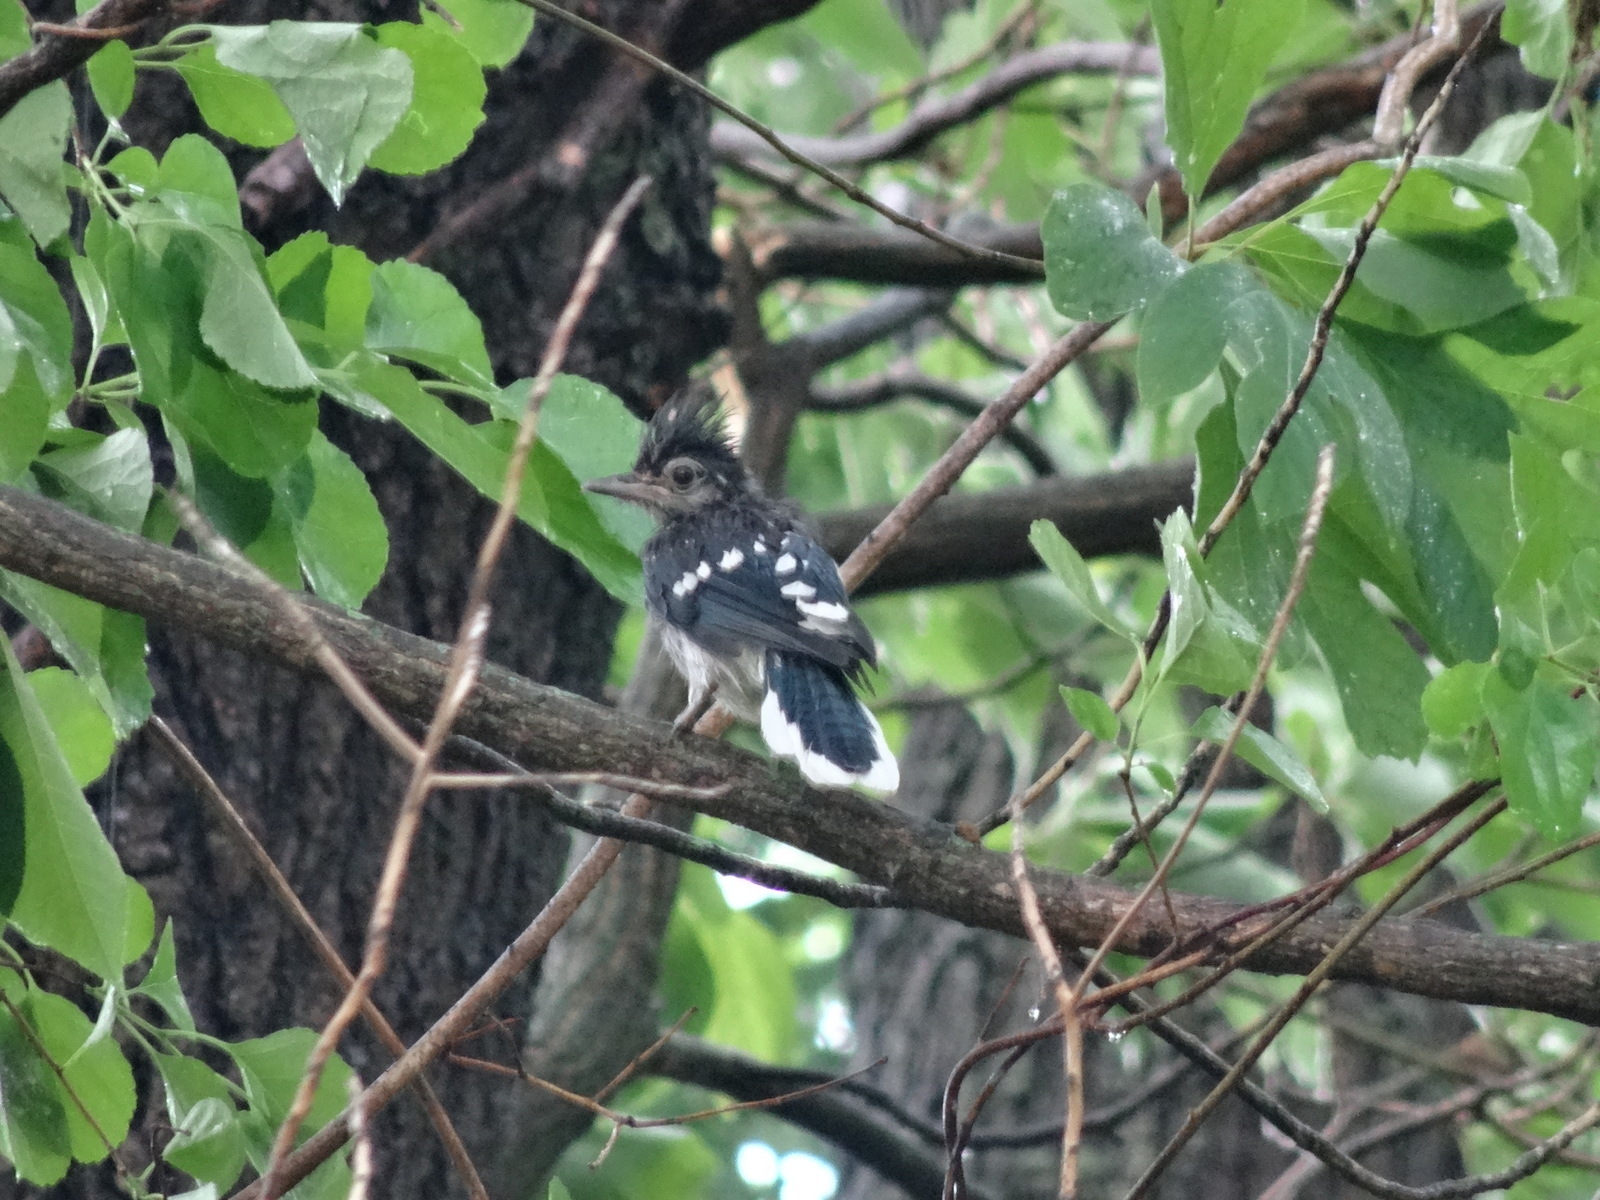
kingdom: Animalia
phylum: Chordata
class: Aves
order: Passeriformes
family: Corvidae
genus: Cyanocitta
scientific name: Cyanocitta cristata
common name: Blue jay
